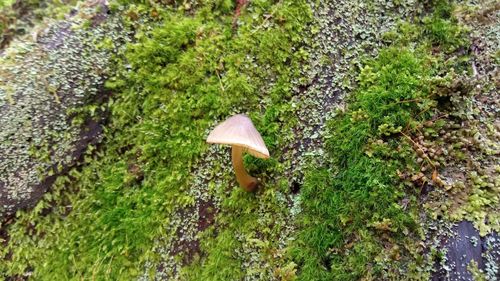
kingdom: Fungi
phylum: Basidiomycota
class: Agaricomycetes
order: Agaricales
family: Mycenaceae
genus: Mycena
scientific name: Mycena
